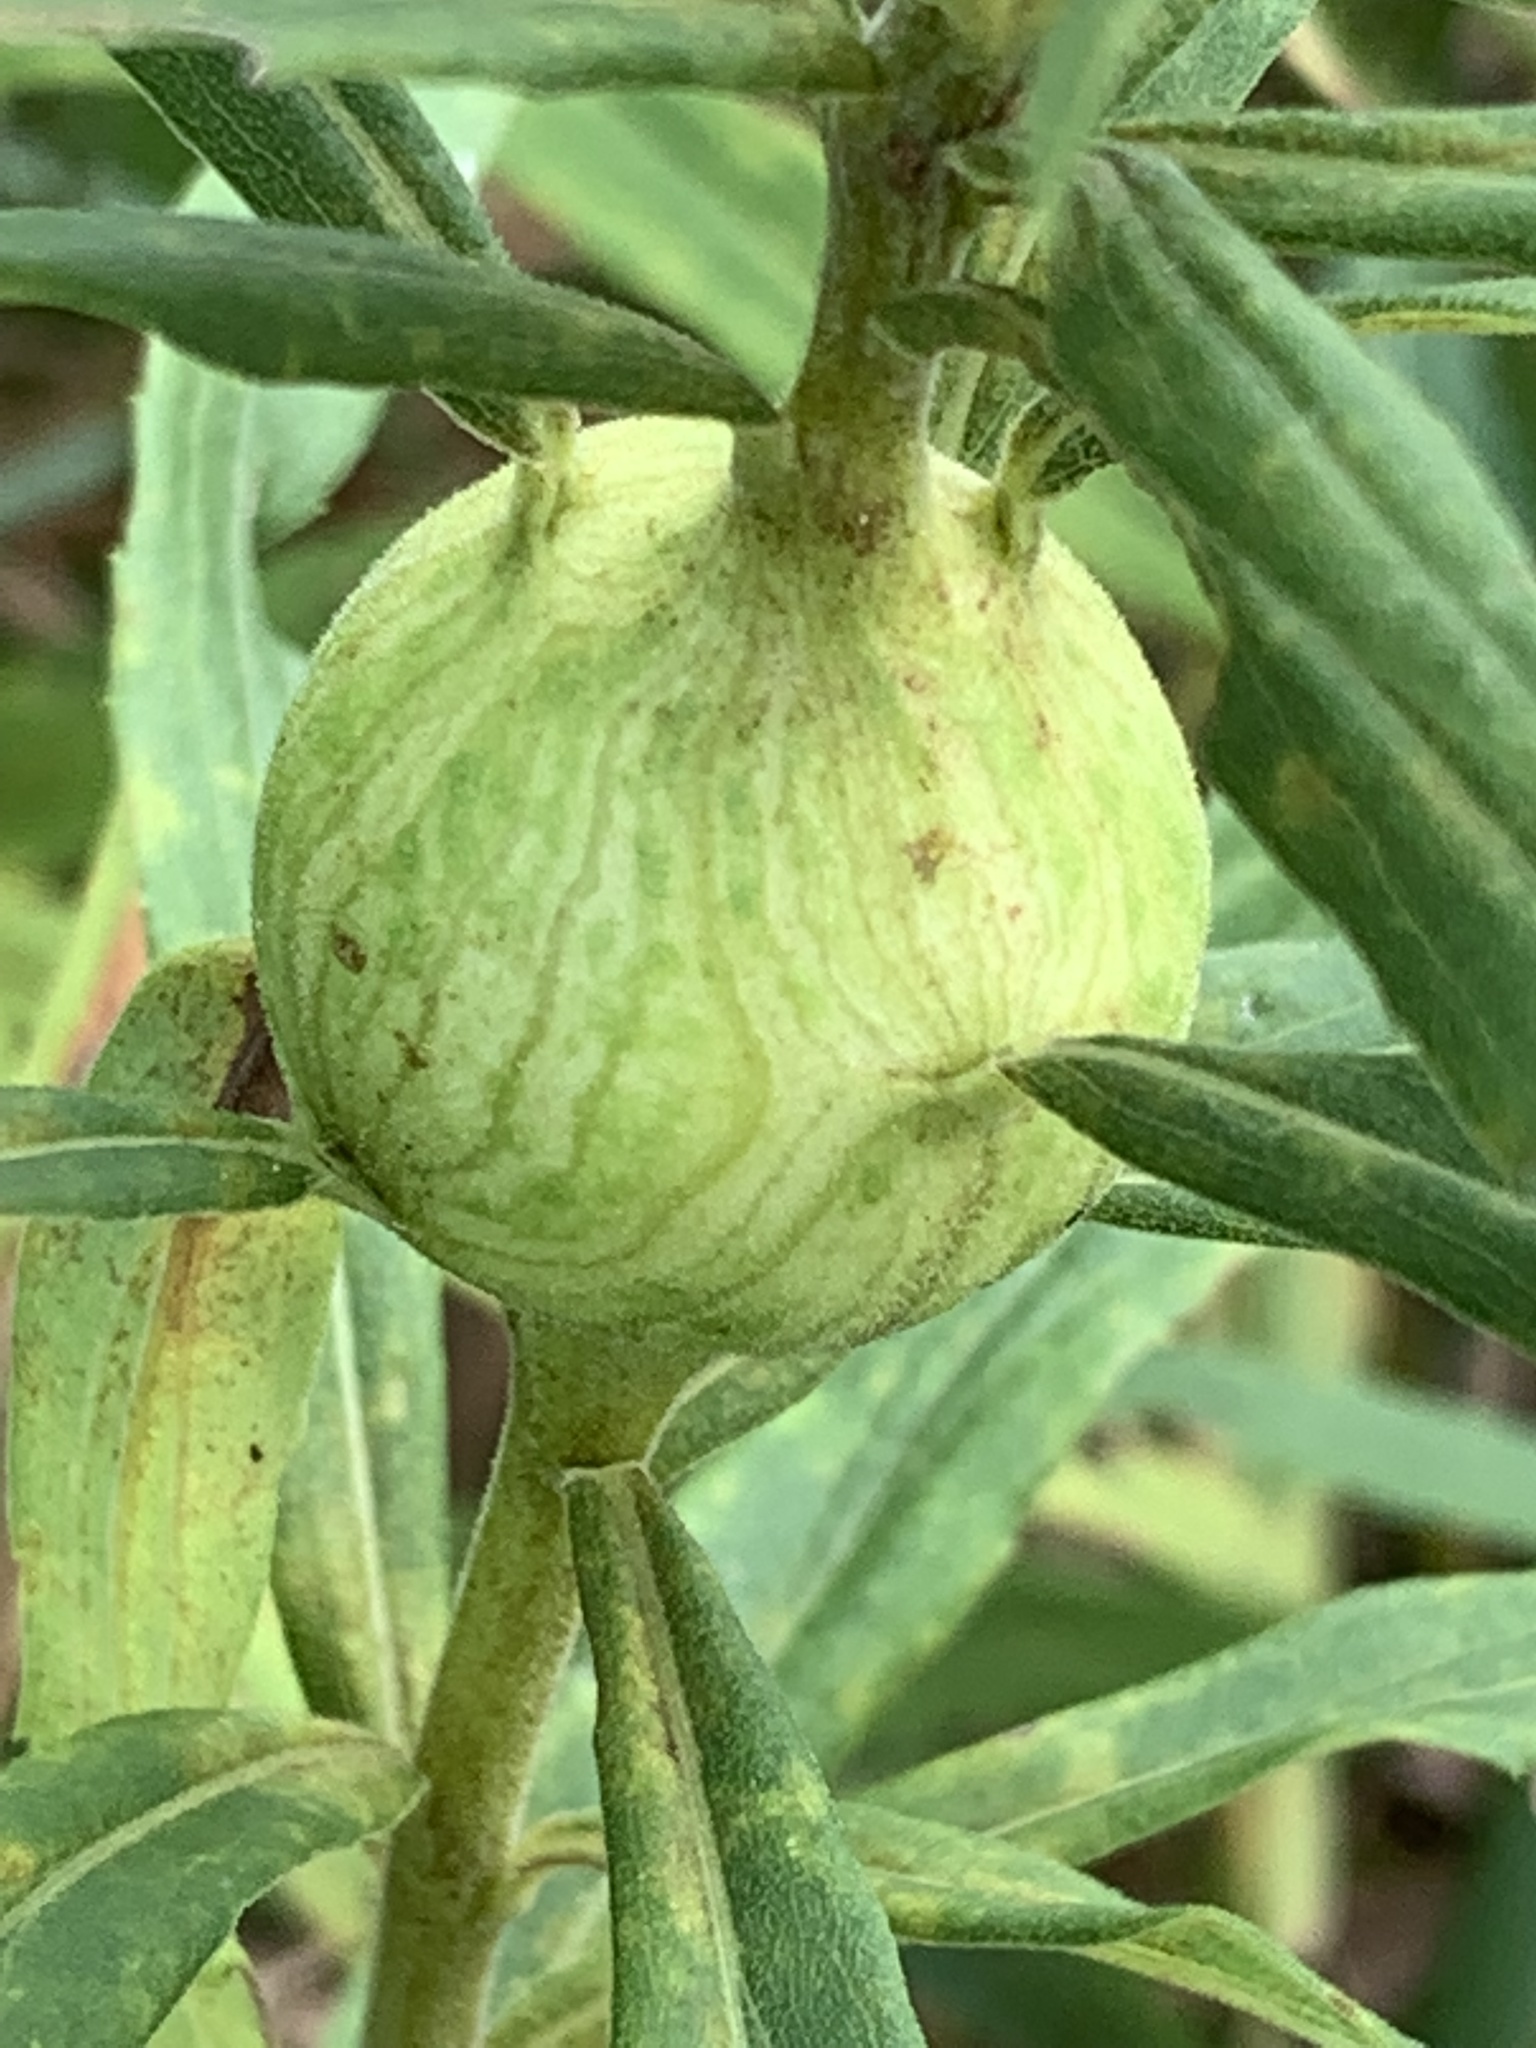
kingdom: Animalia
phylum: Arthropoda
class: Insecta
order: Diptera
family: Tephritidae
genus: Eurosta
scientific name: Eurosta solidaginis
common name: Goldenrod gall fly
